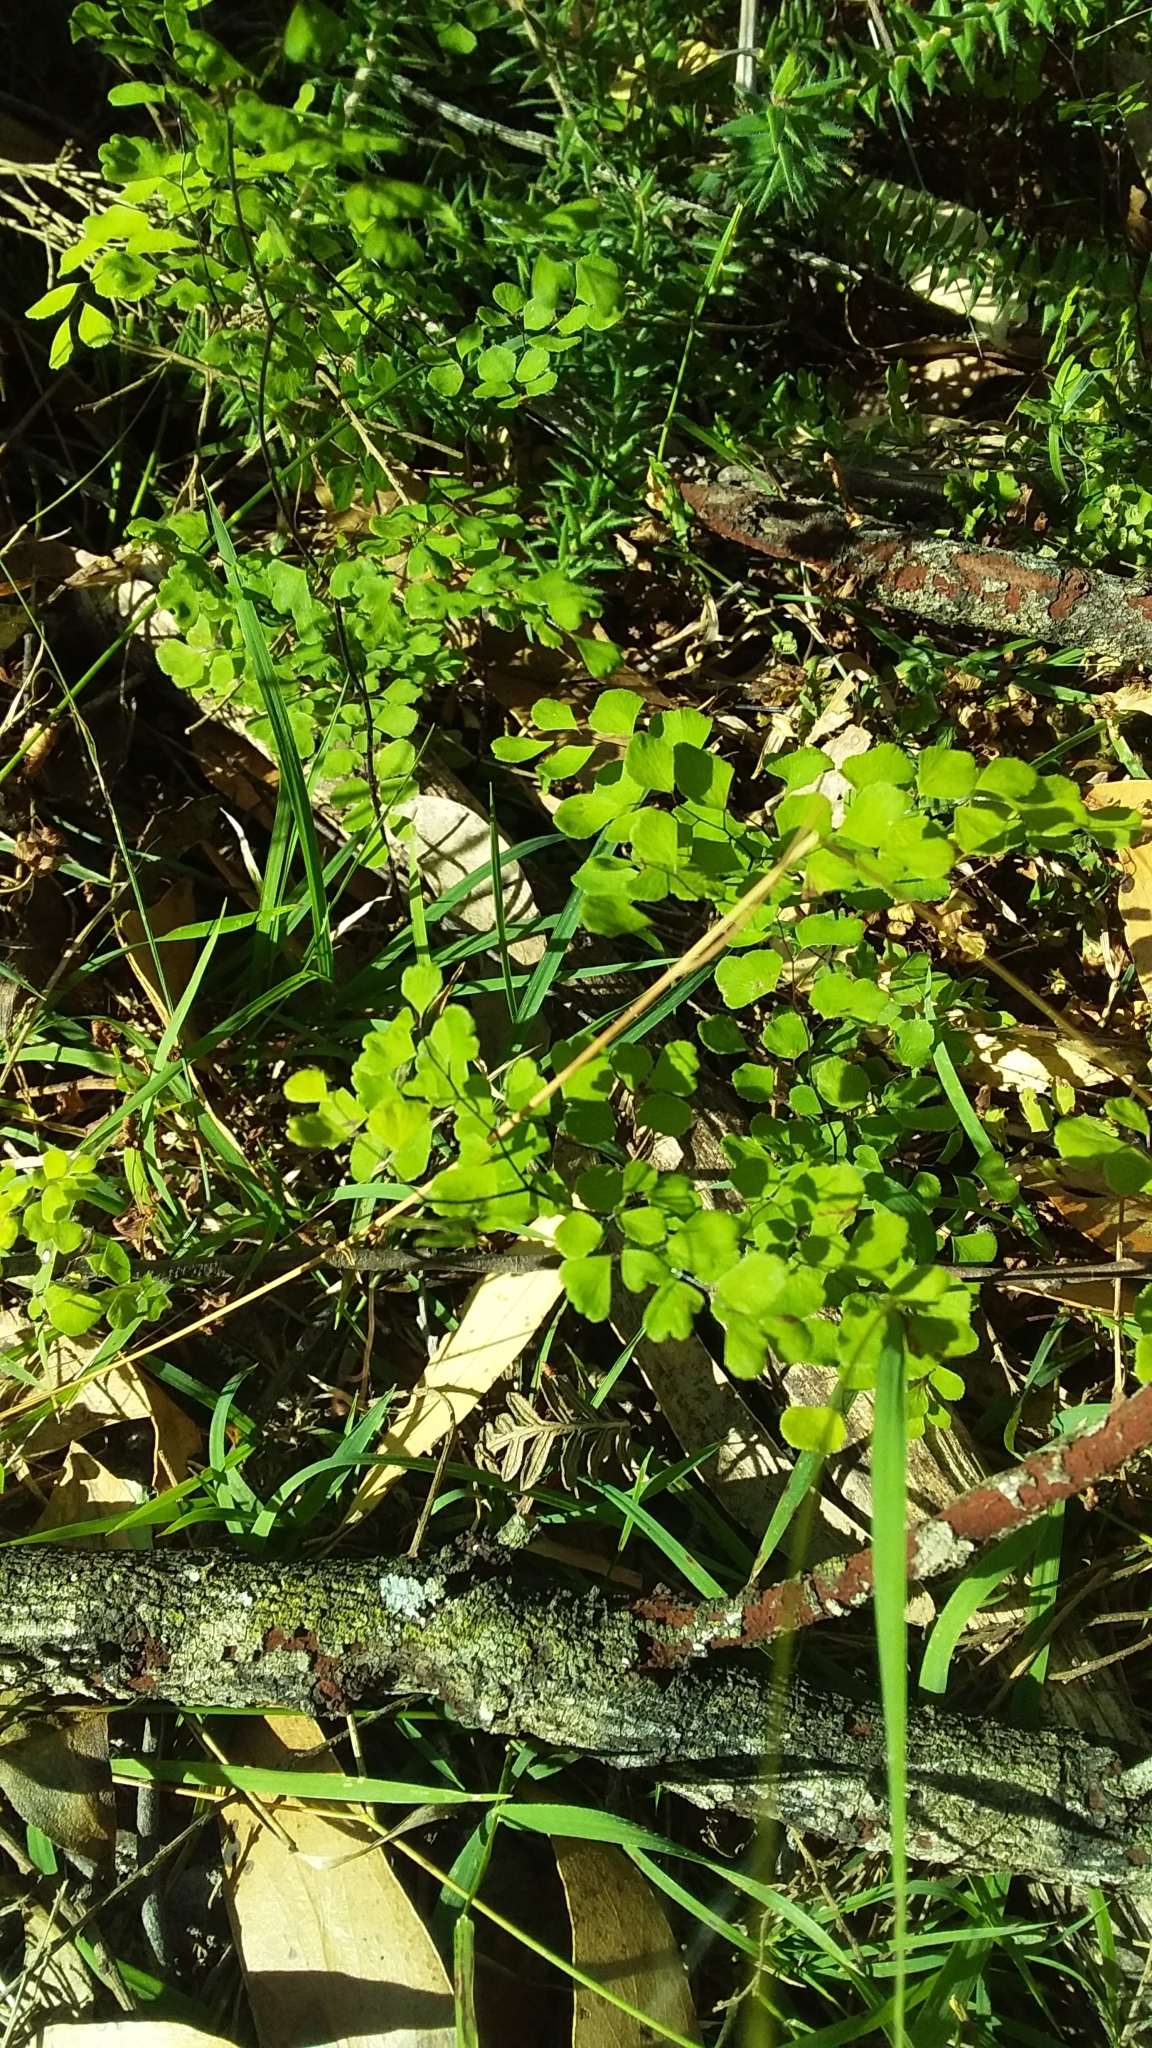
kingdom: Plantae
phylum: Tracheophyta
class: Polypodiopsida
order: Polypodiales
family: Pteridaceae
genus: Adiantum
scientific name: Adiantum aethiopicum
